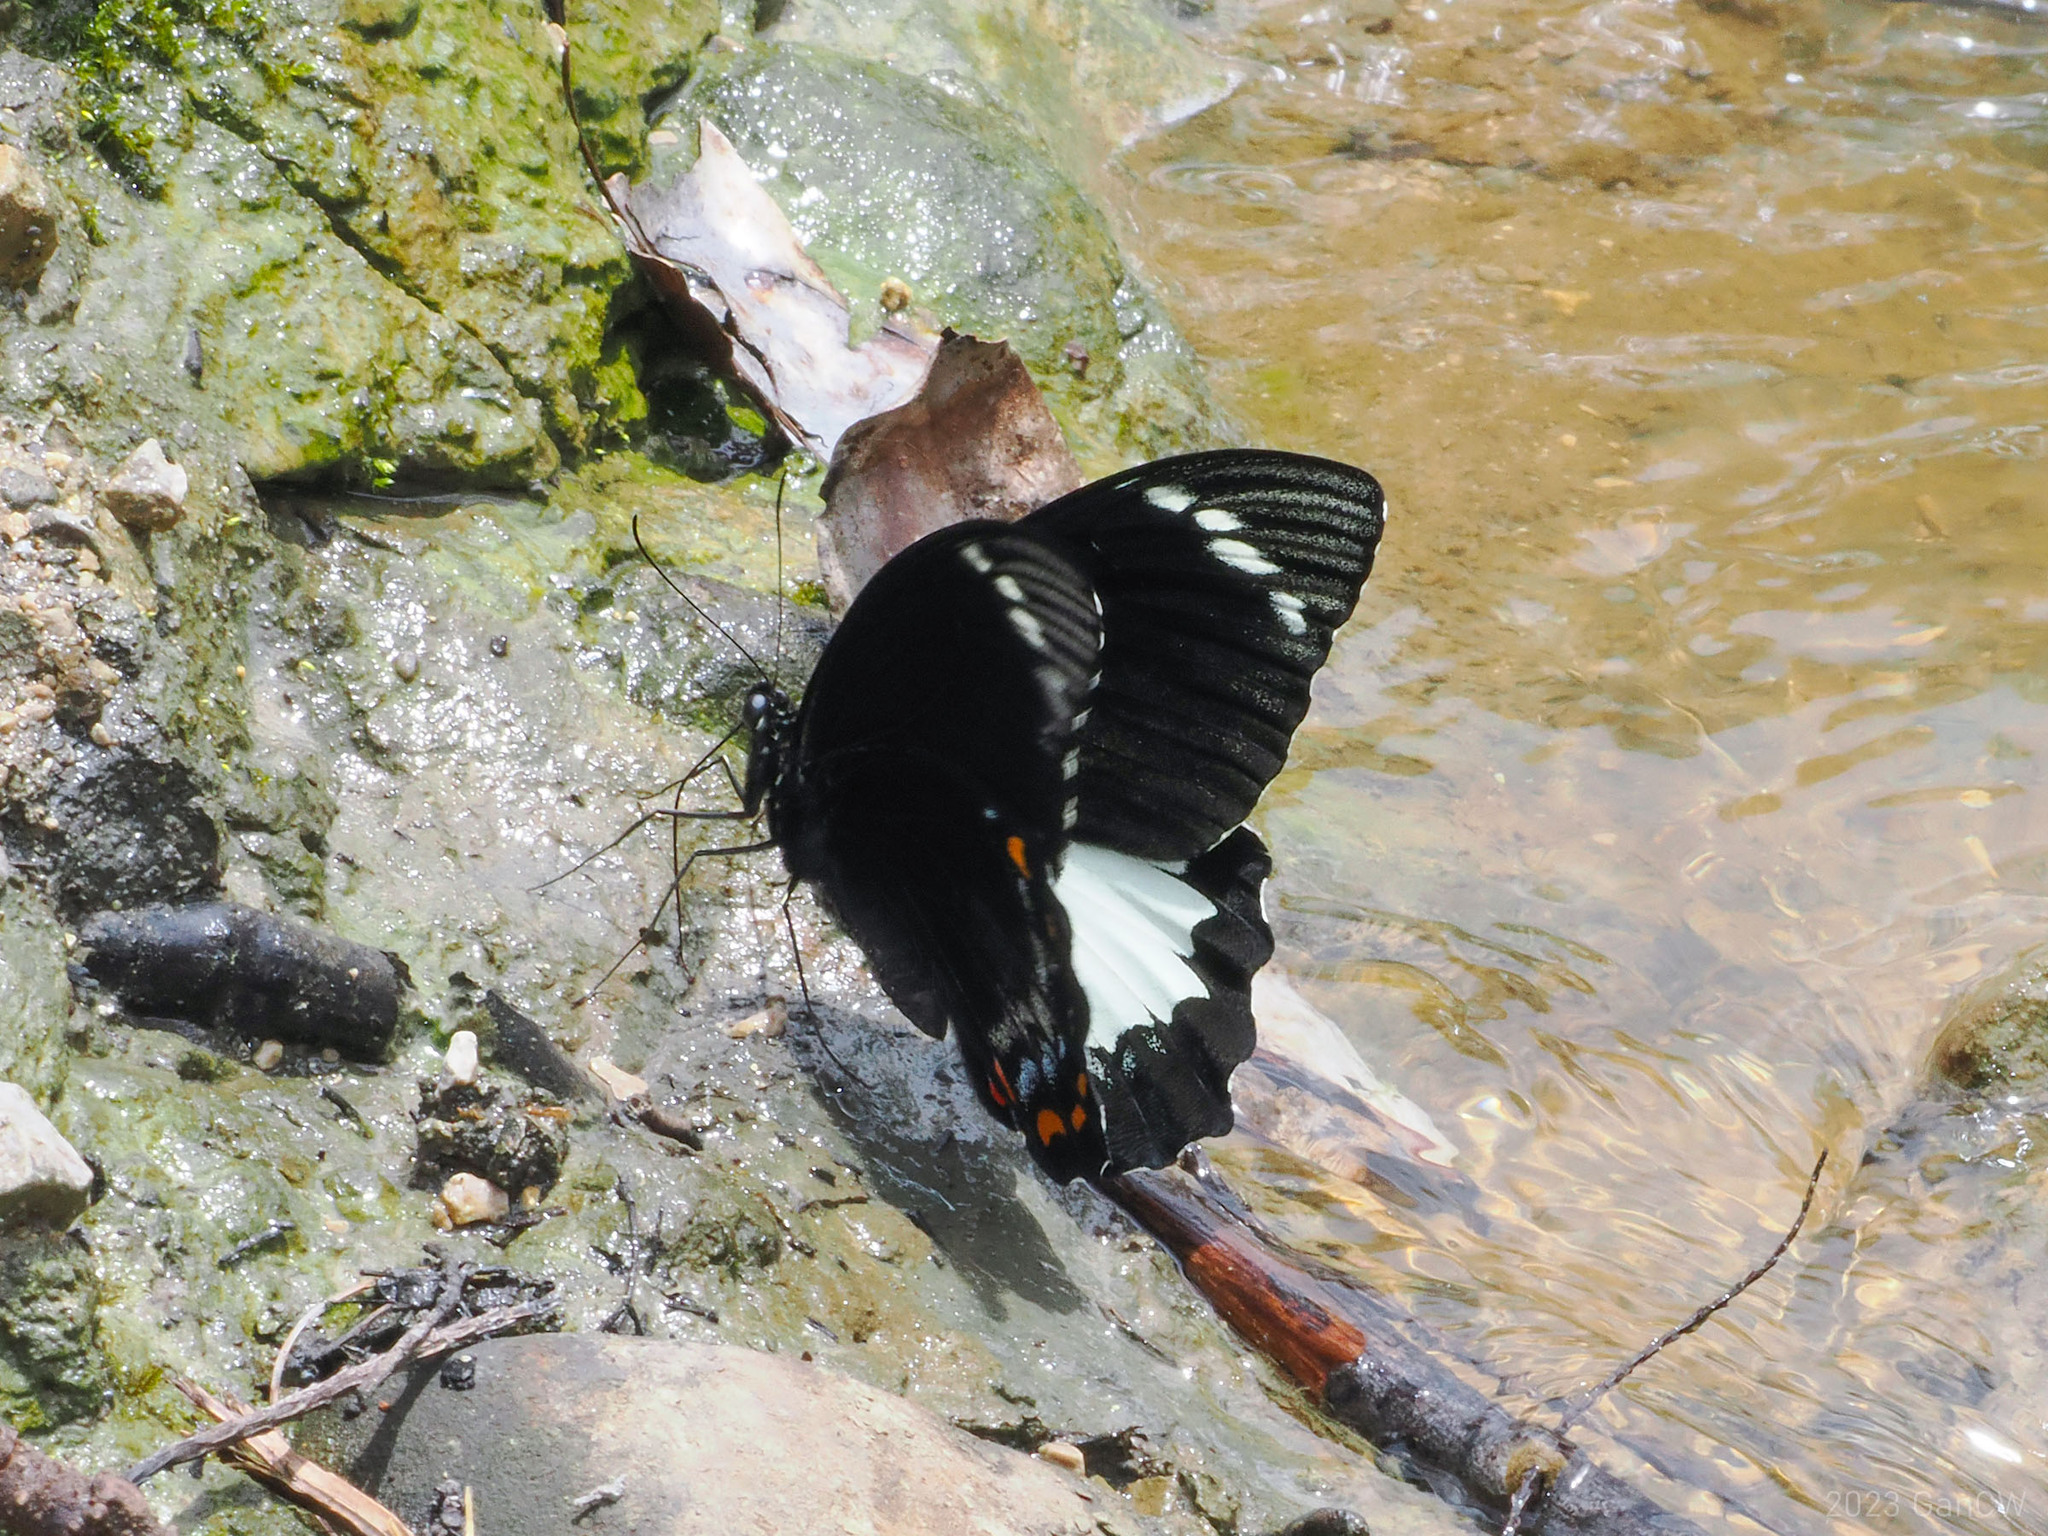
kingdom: Animalia
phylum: Arthropoda
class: Insecta
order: Lepidoptera
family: Papilionidae
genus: Papilio
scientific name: Papilio aegeus
